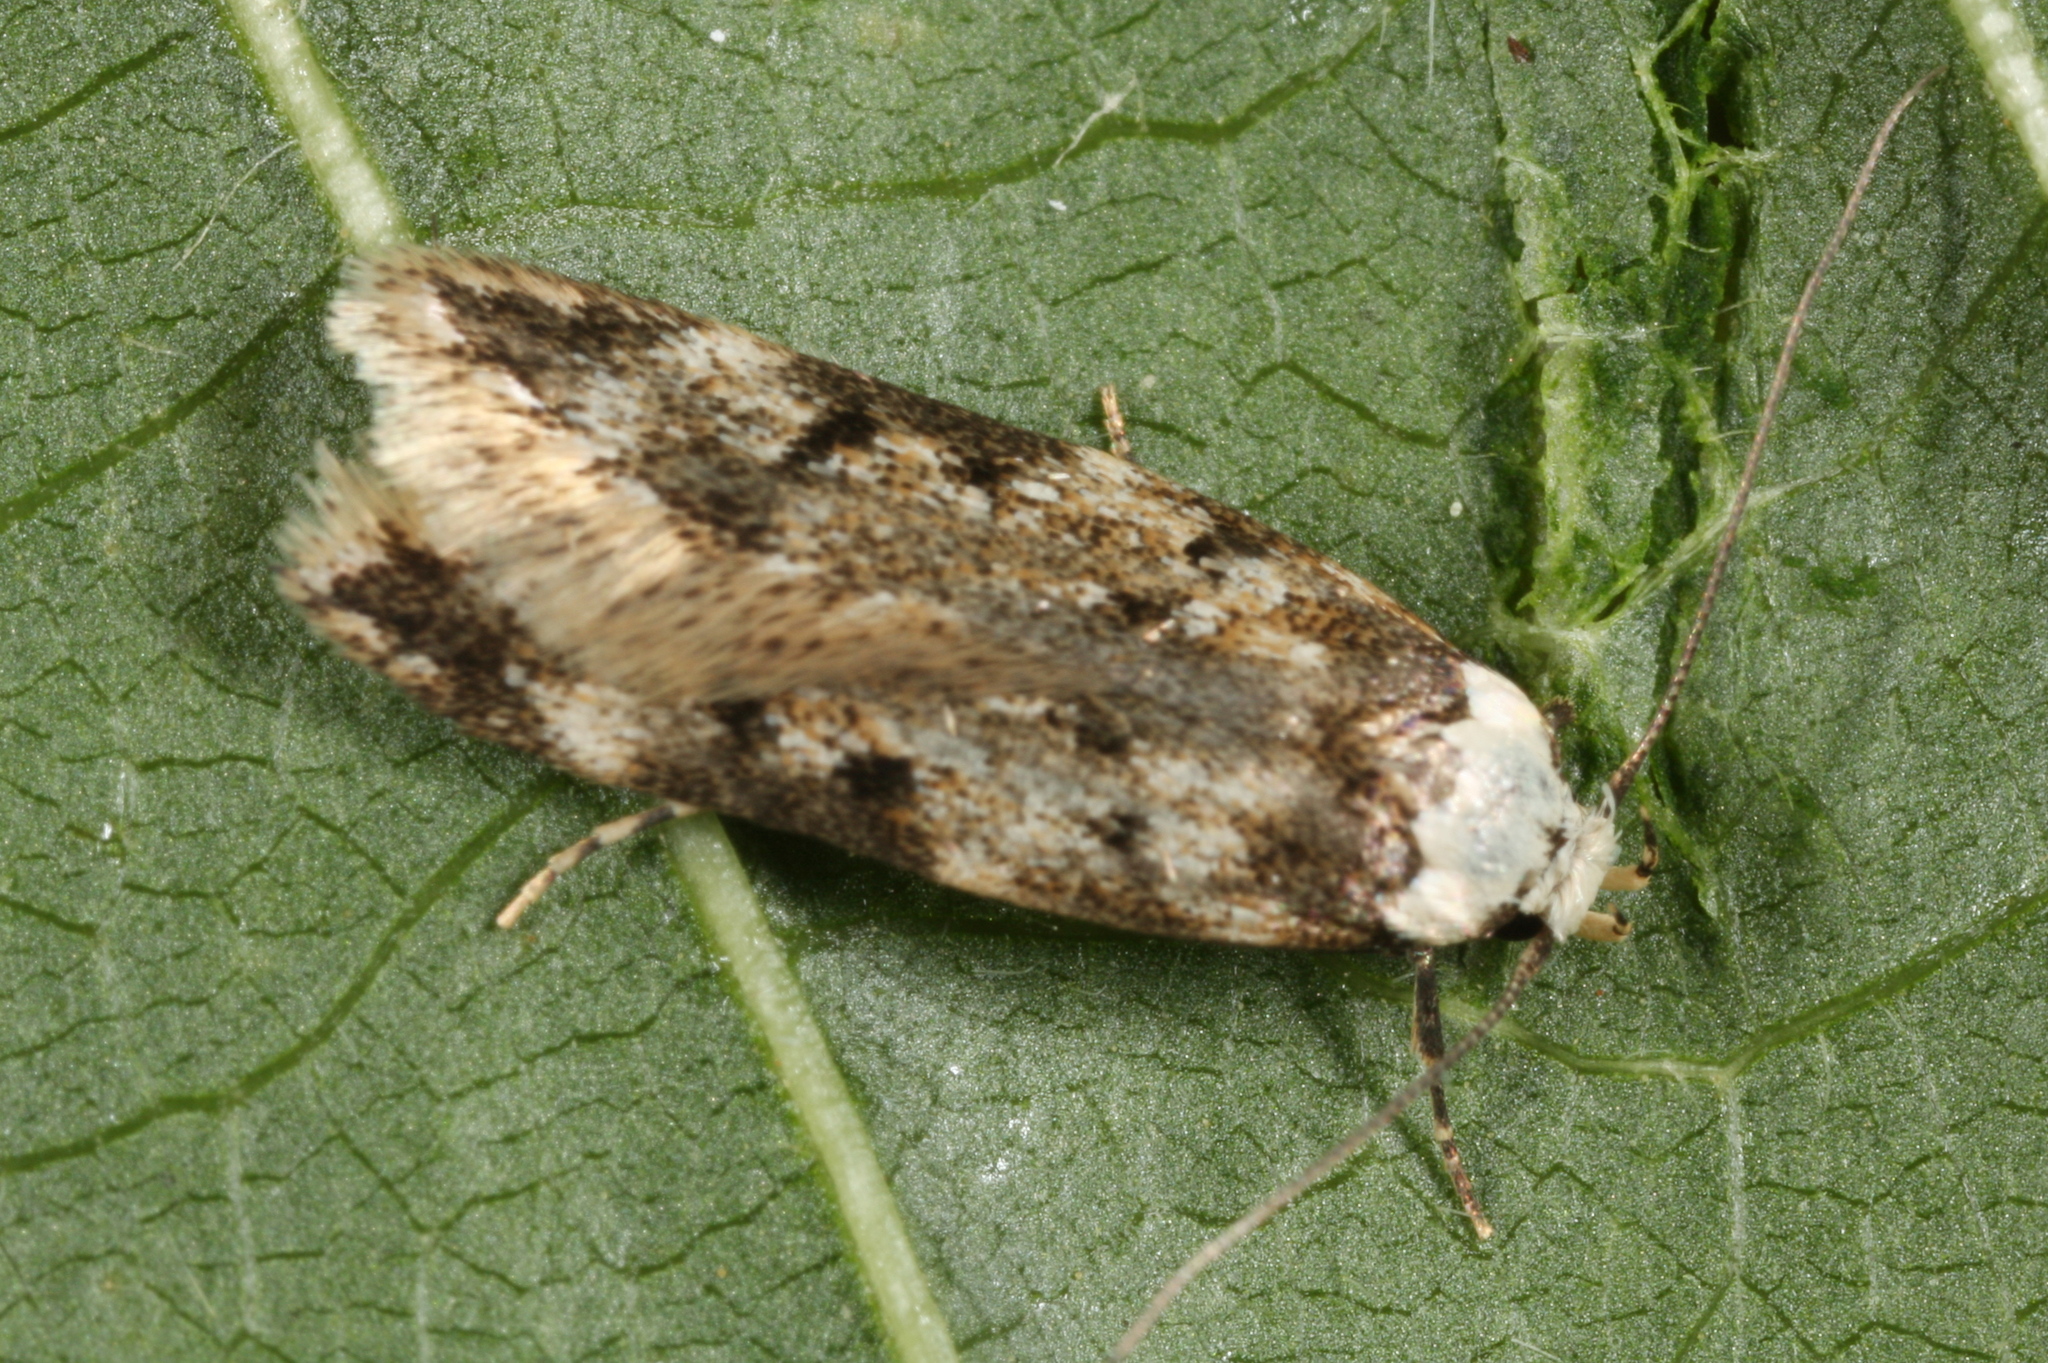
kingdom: Animalia
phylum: Arthropoda
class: Insecta
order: Lepidoptera
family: Oecophoridae
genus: Endrosis
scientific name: Endrosis sarcitrella
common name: White-shouldered house moth
